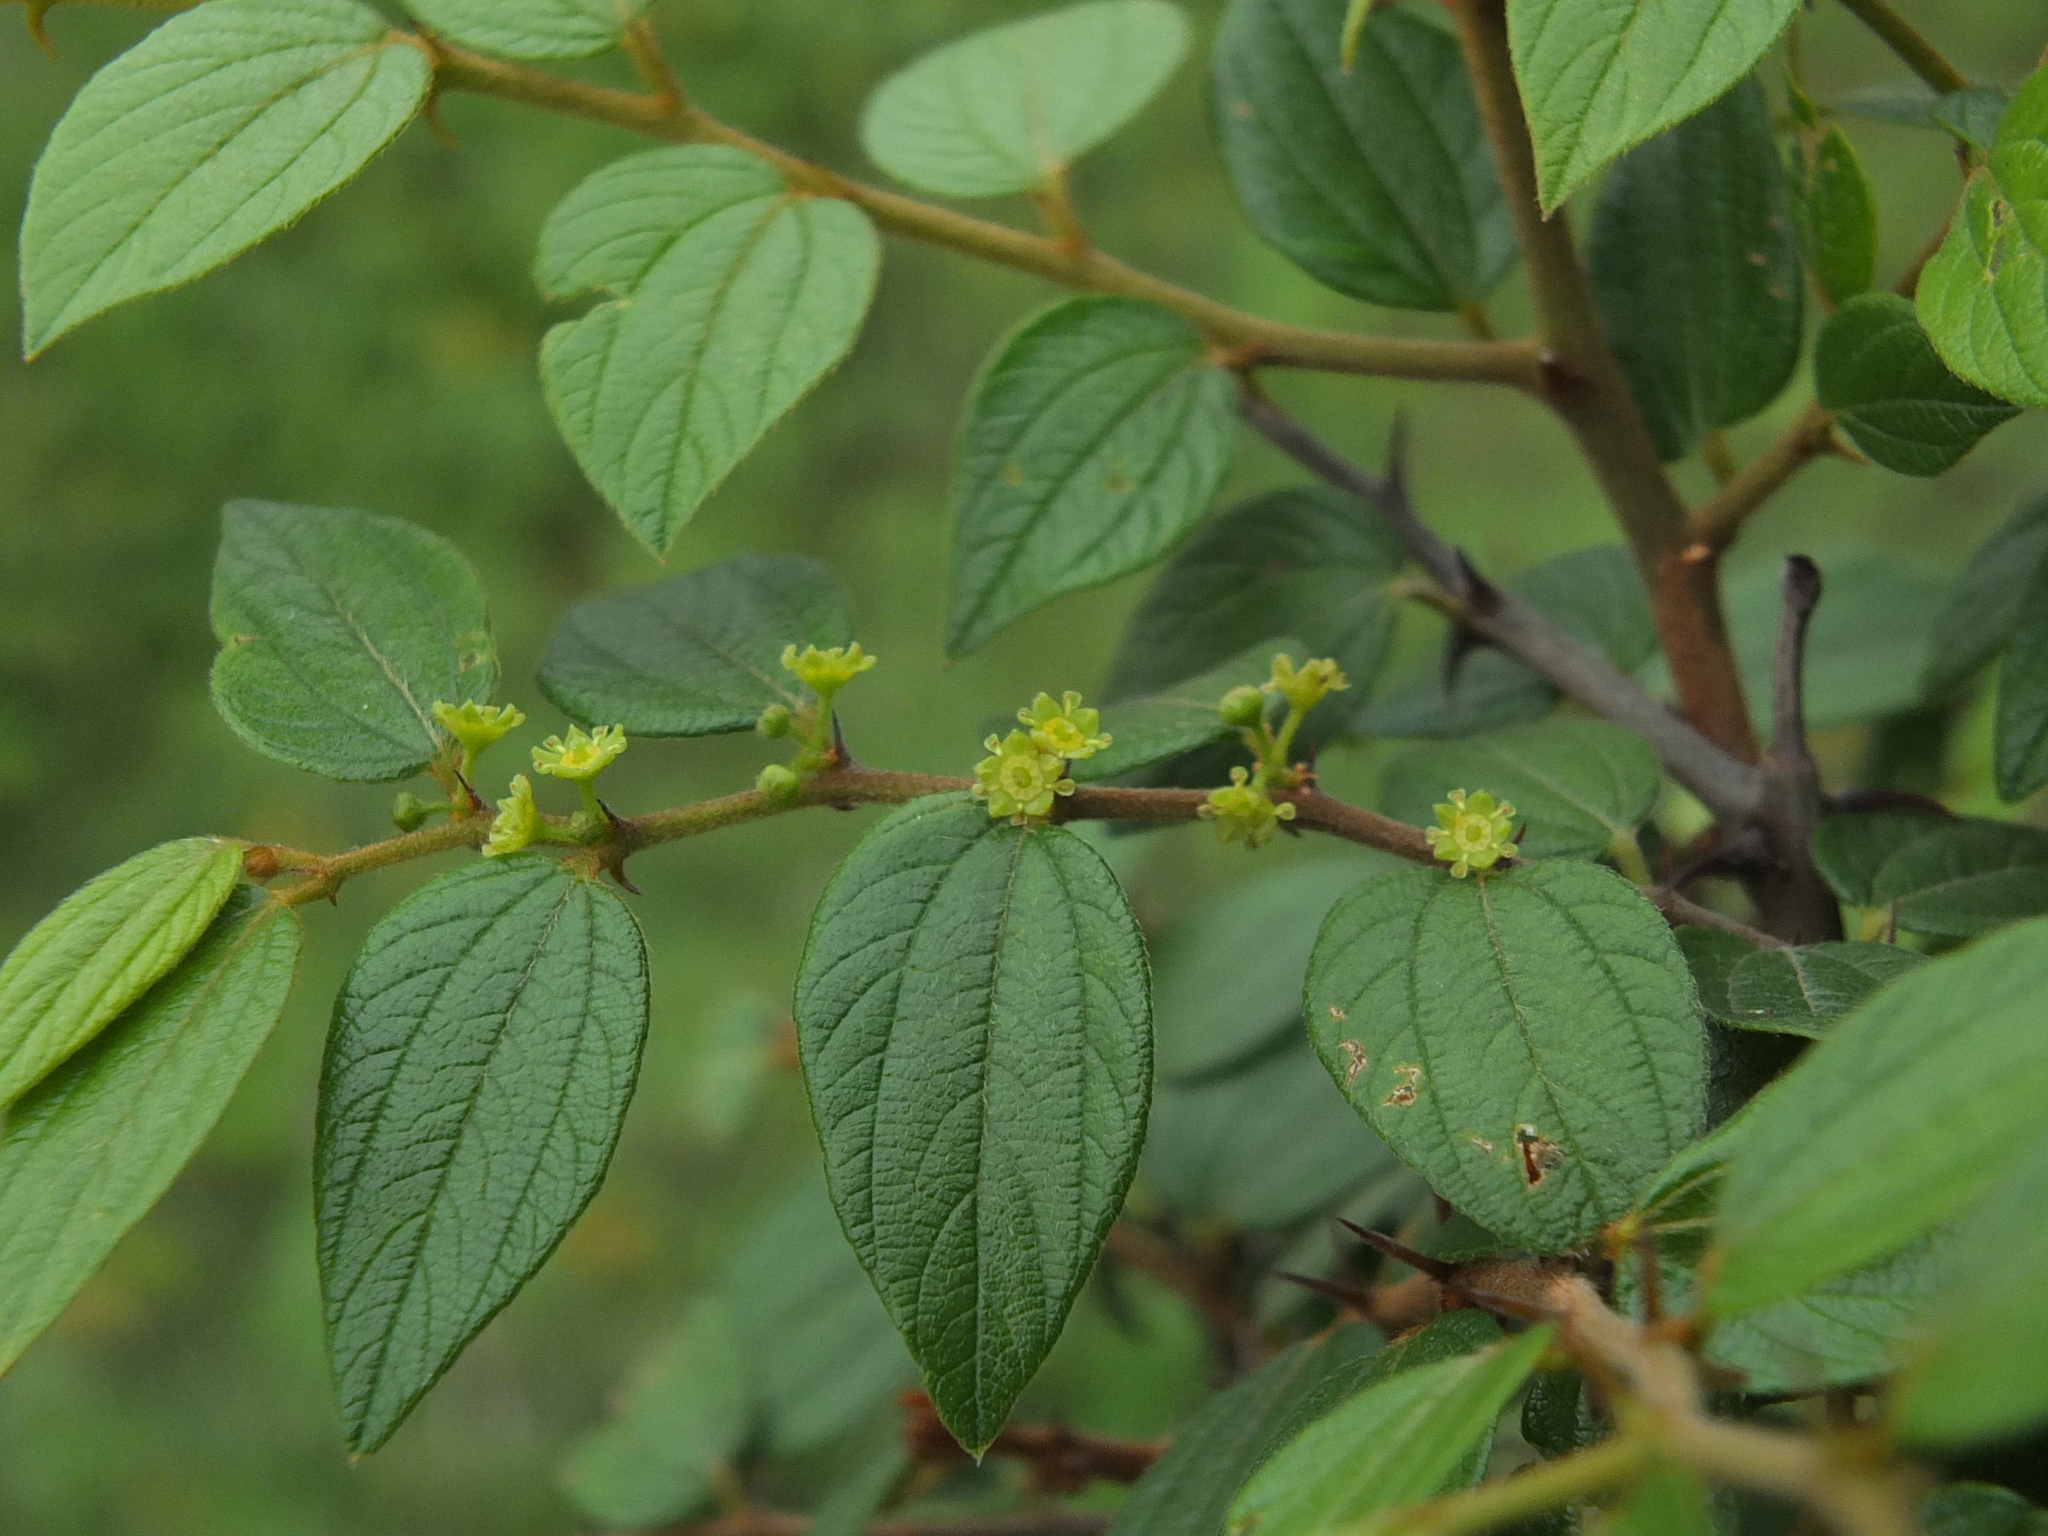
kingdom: Plantae
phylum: Tracheophyta
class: Magnoliopsida
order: Rosales
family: Rhamnaceae
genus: Ziziphus
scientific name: Ziziphus oenopolia
